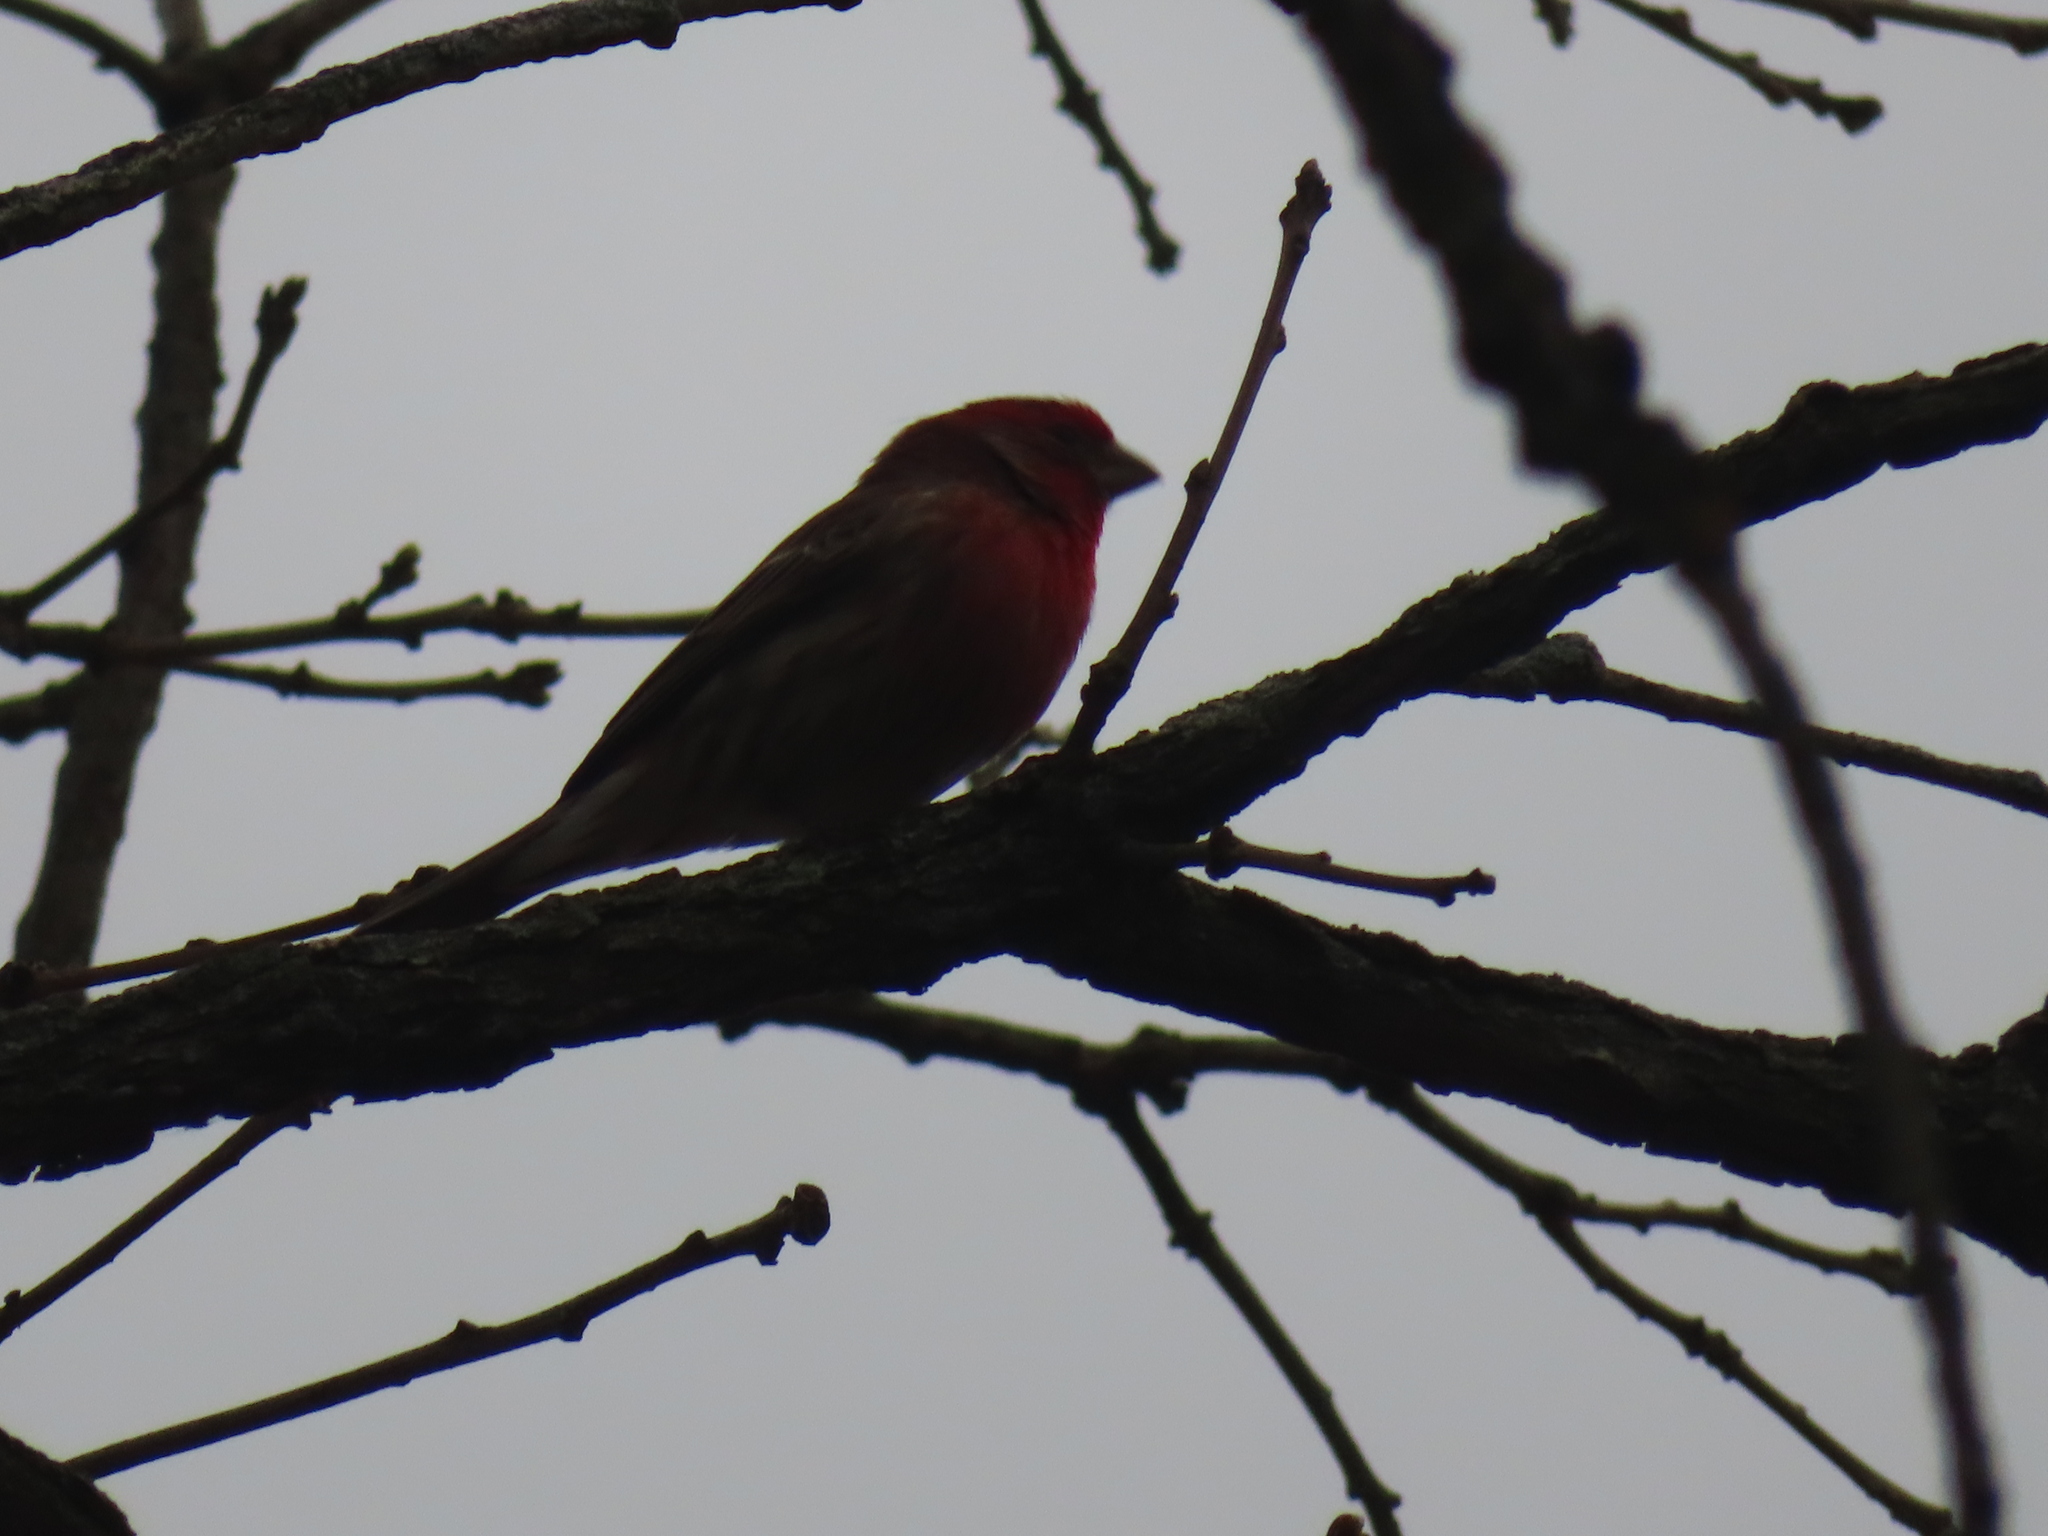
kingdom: Animalia
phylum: Chordata
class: Aves
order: Passeriformes
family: Fringillidae
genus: Haemorhous
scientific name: Haemorhous mexicanus
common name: House finch
